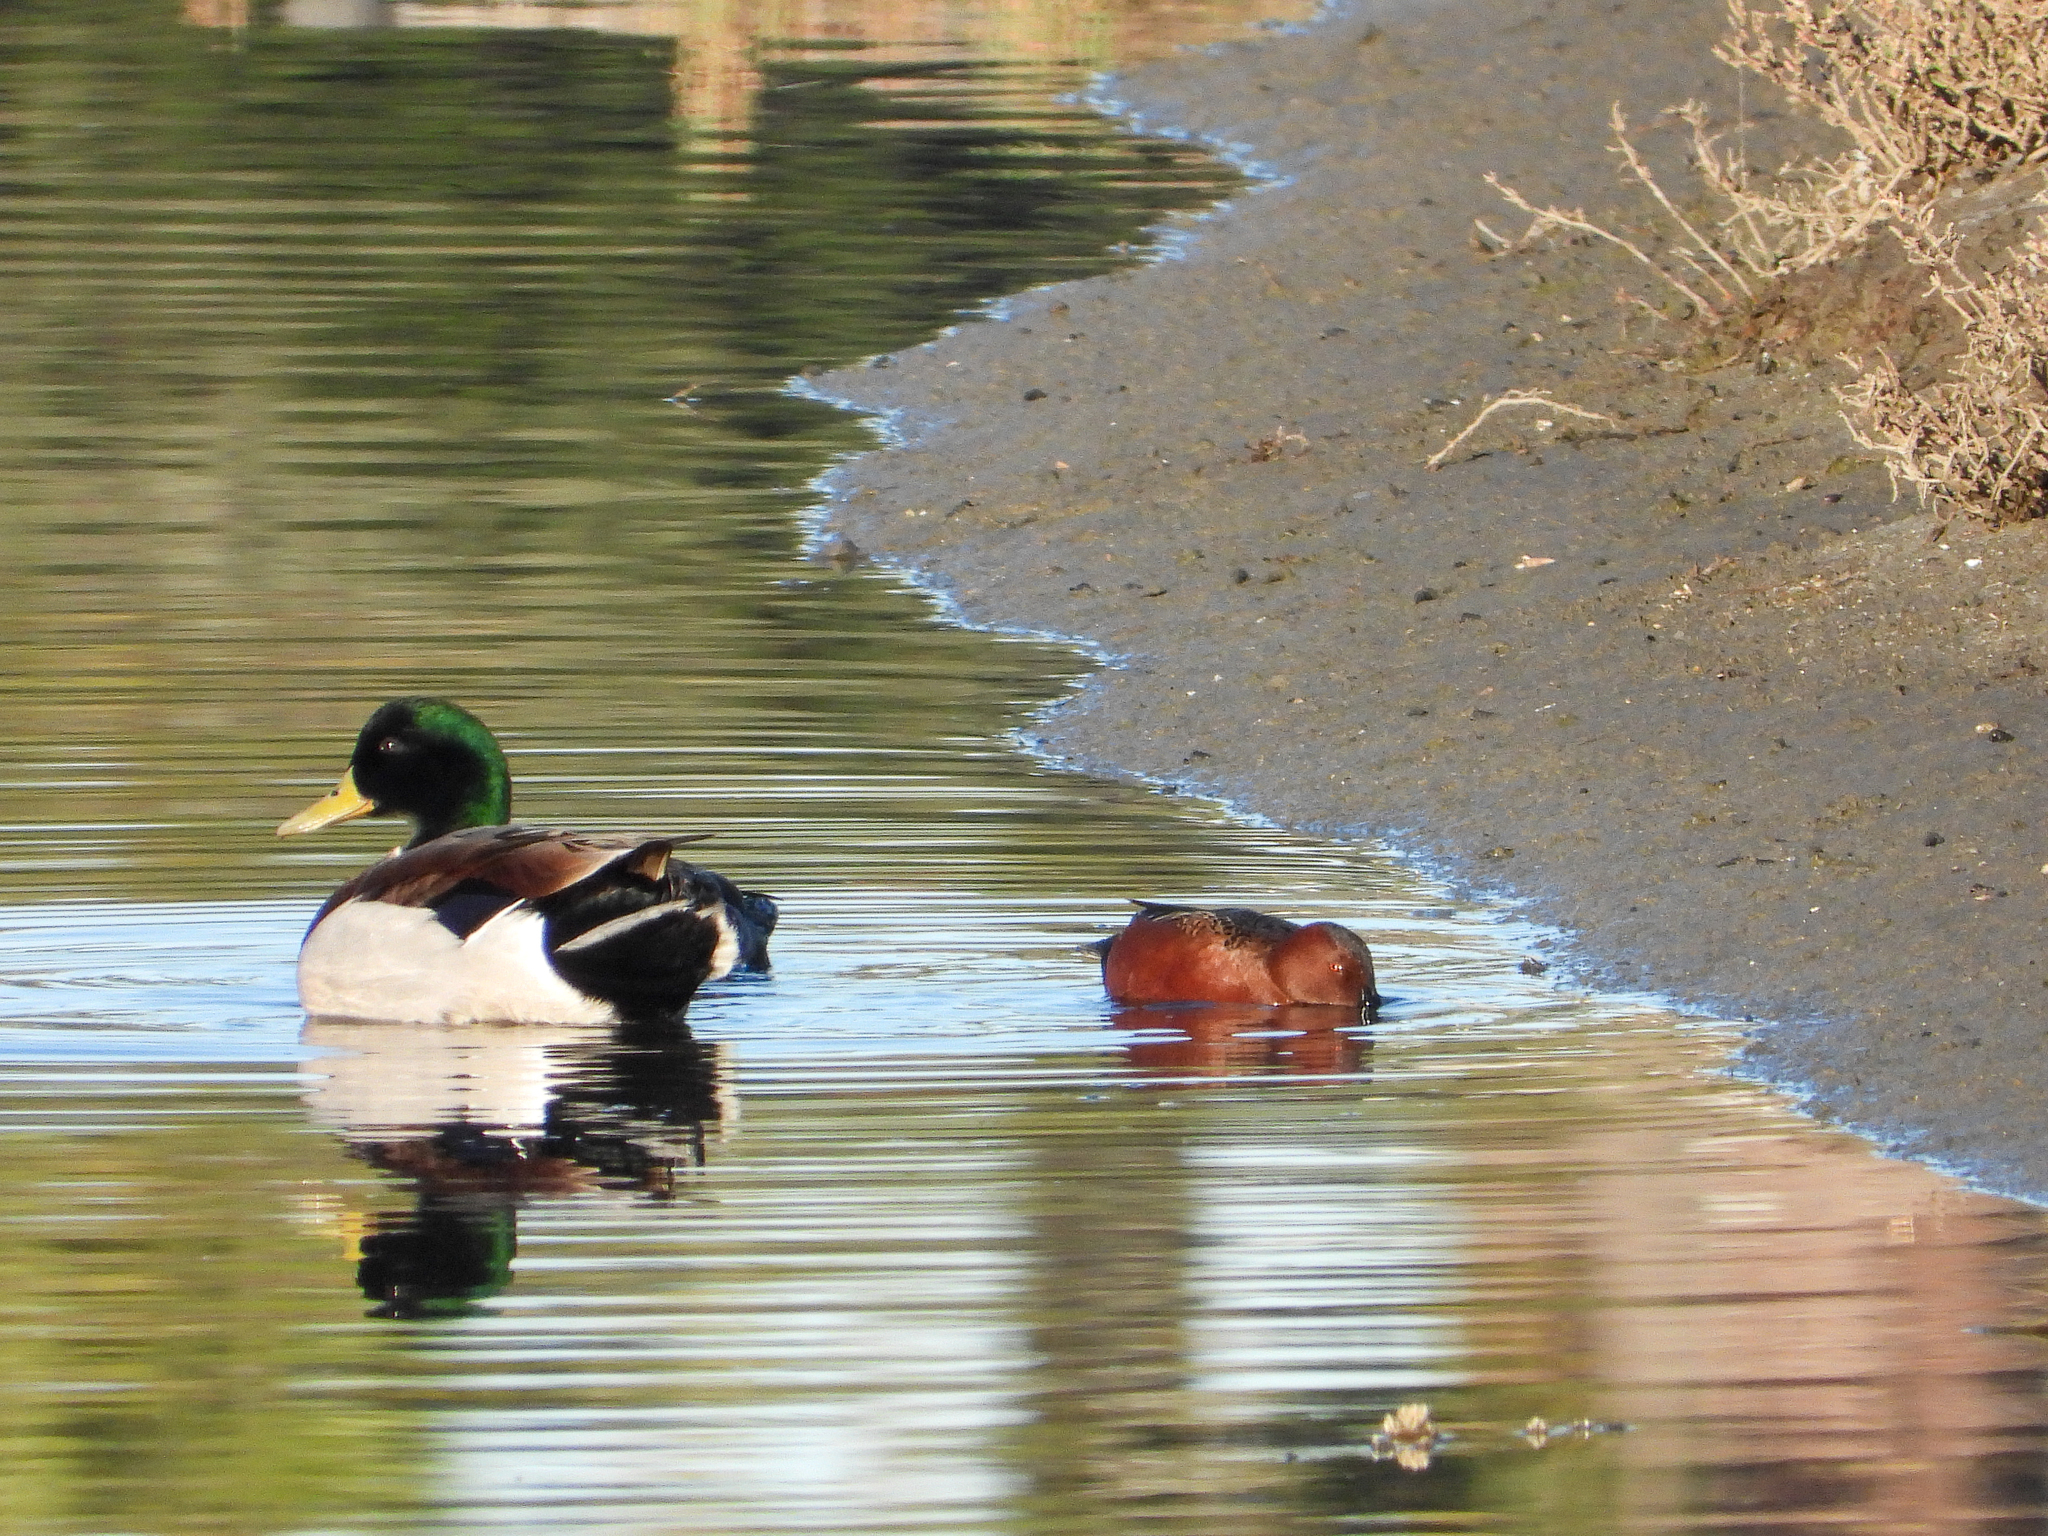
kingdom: Animalia
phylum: Chordata
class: Aves
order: Anseriformes
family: Anatidae
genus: Spatula
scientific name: Spatula cyanoptera
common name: Cinnamon teal
